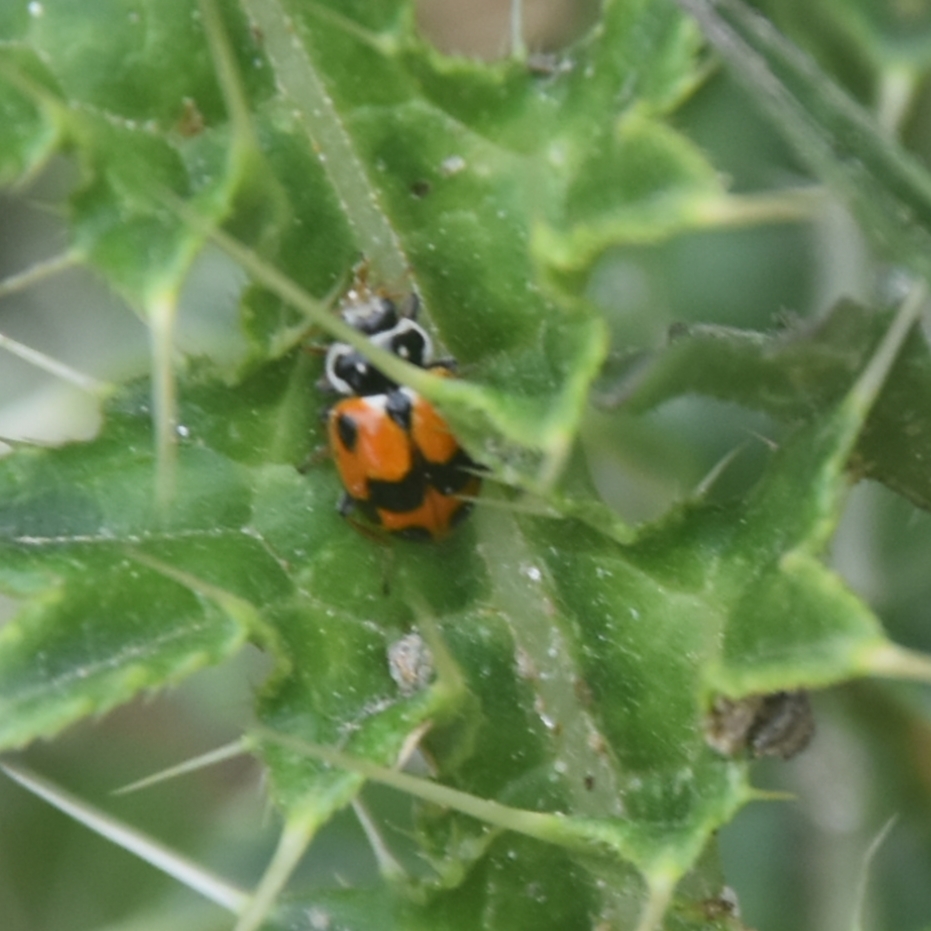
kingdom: Animalia
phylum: Arthropoda
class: Insecta
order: Coleoptera
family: Coccinellidae
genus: Hippodamia
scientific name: Hippodamia variegata
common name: Ladybird beetle
